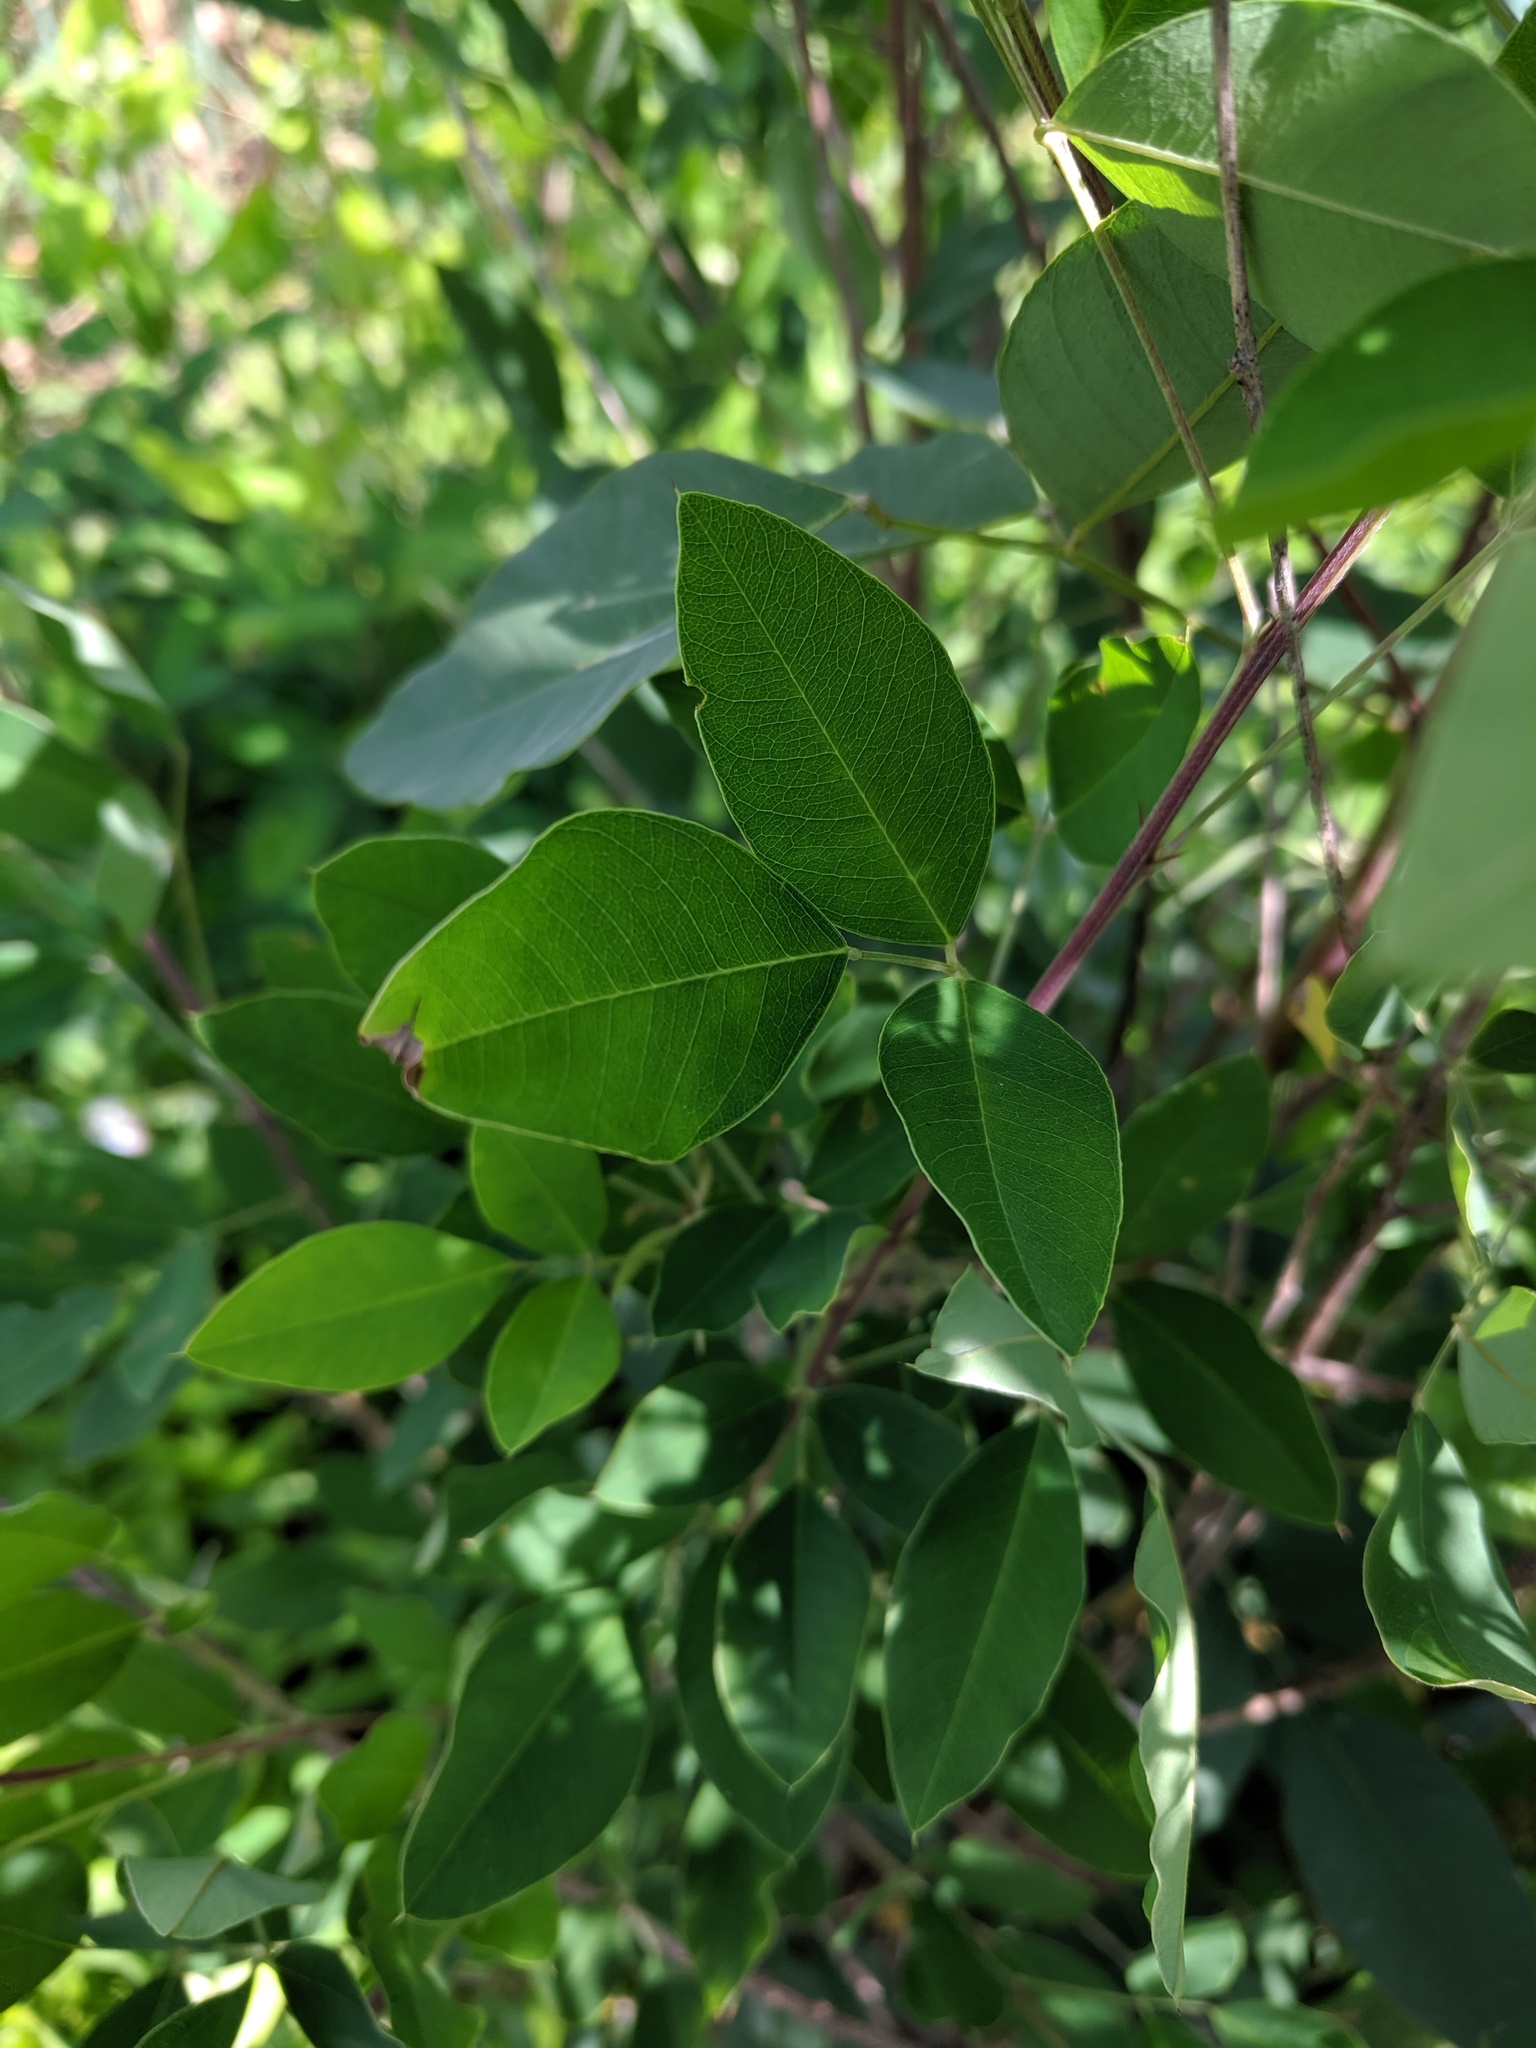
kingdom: Plantae
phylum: Tracheophyta
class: Magnoliopsida
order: Fabales
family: Fabaceae
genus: Lespedeza
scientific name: Lespedeza bicolor
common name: Shrub lespedeza
